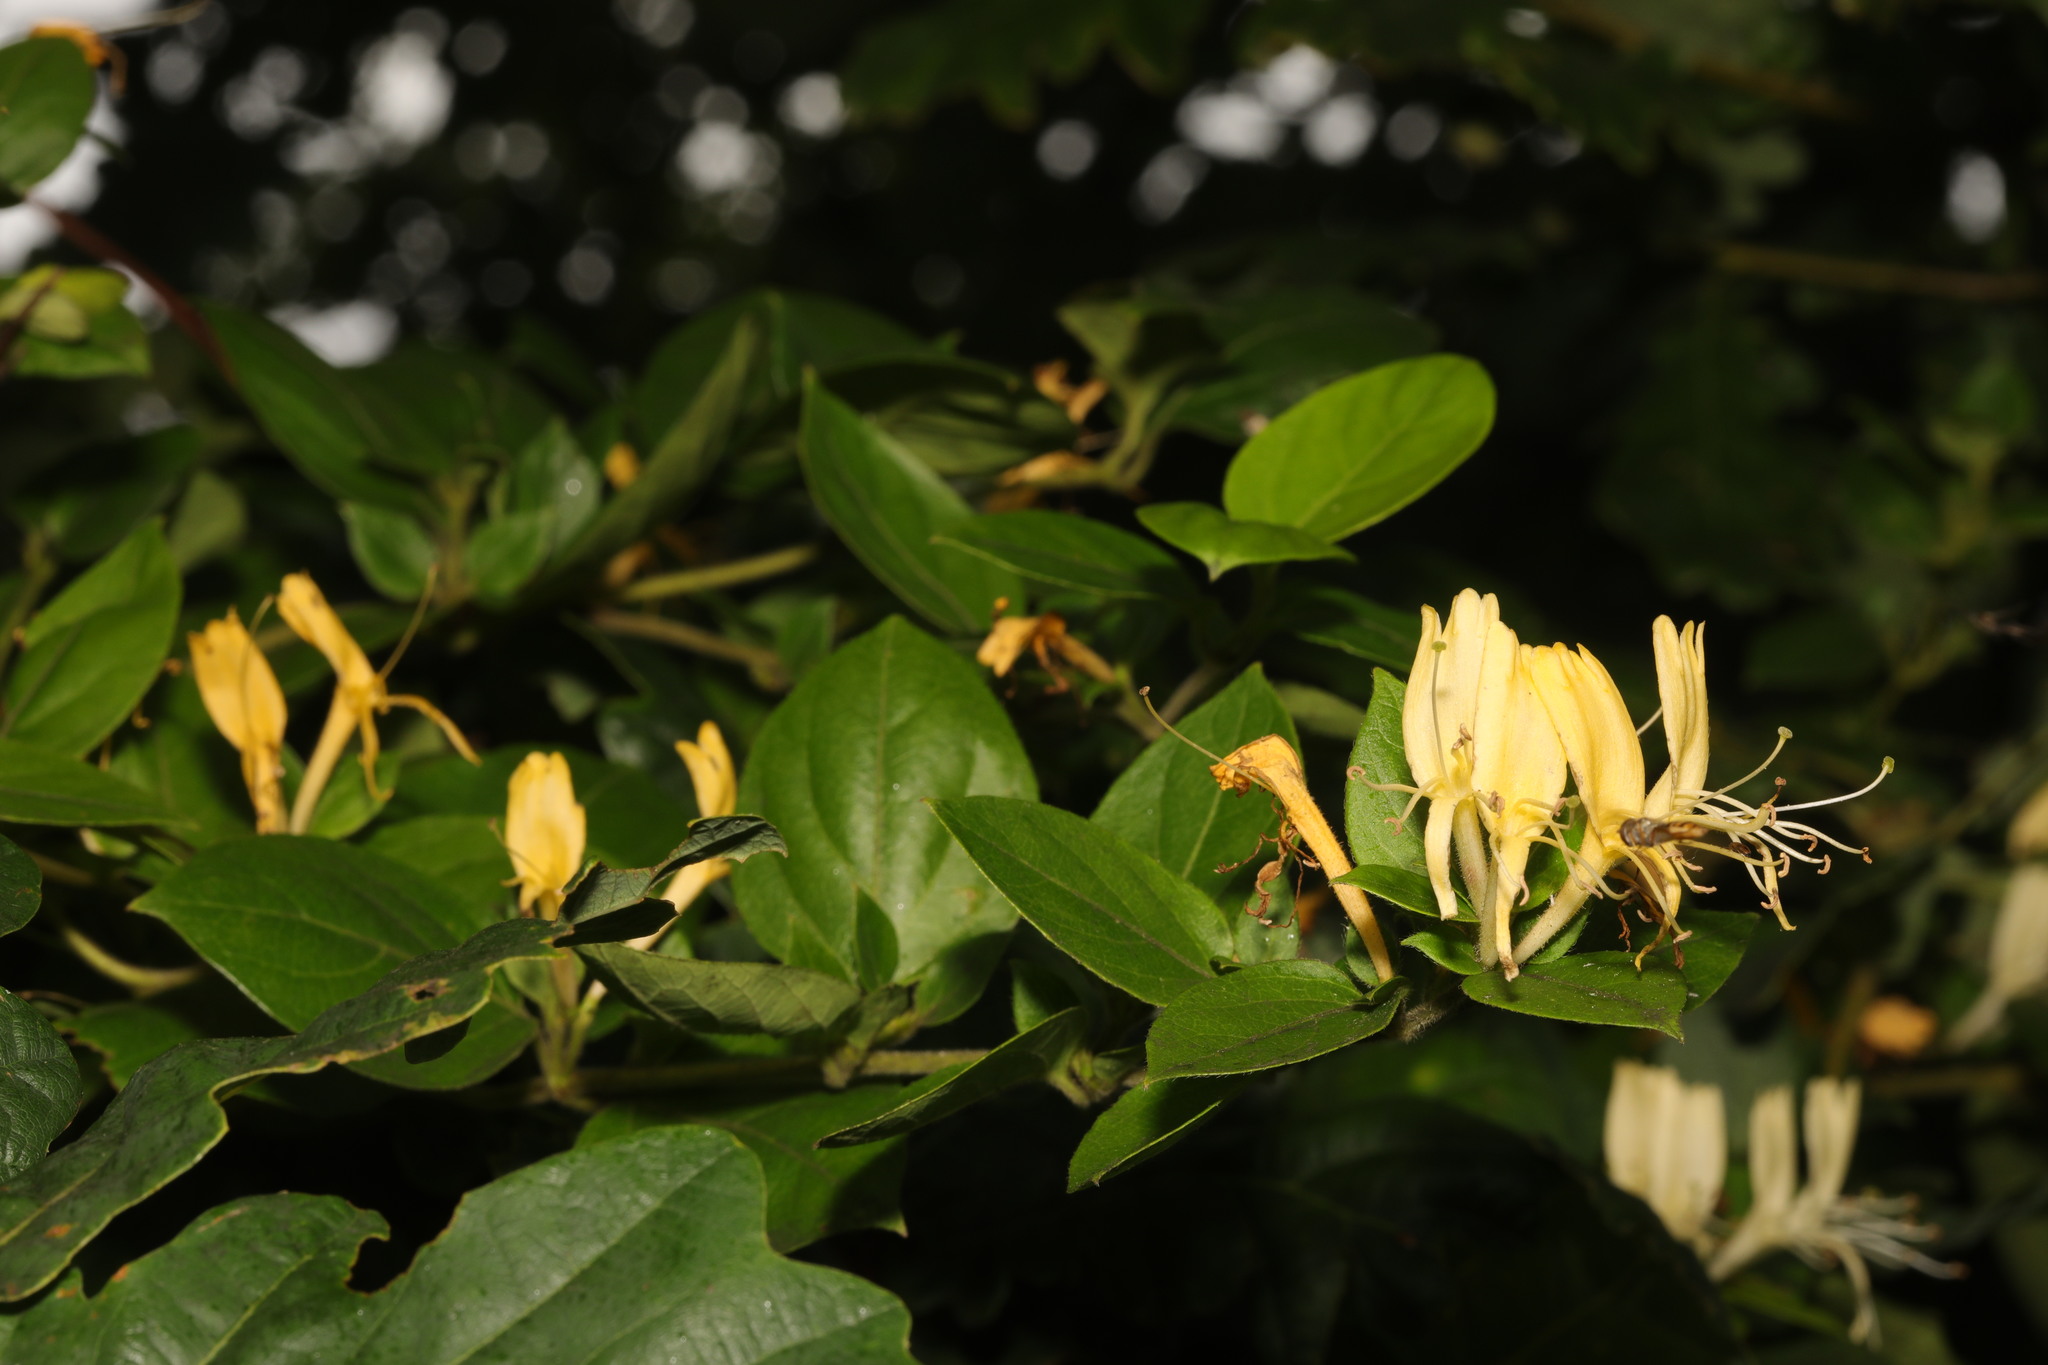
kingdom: Plantae
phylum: Tracheophyta
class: Magnoliopsida
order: Dipsacales
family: Caprifoliaceae
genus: Lonicera
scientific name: Lonicera japonica
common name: Japanese honeysuckle
